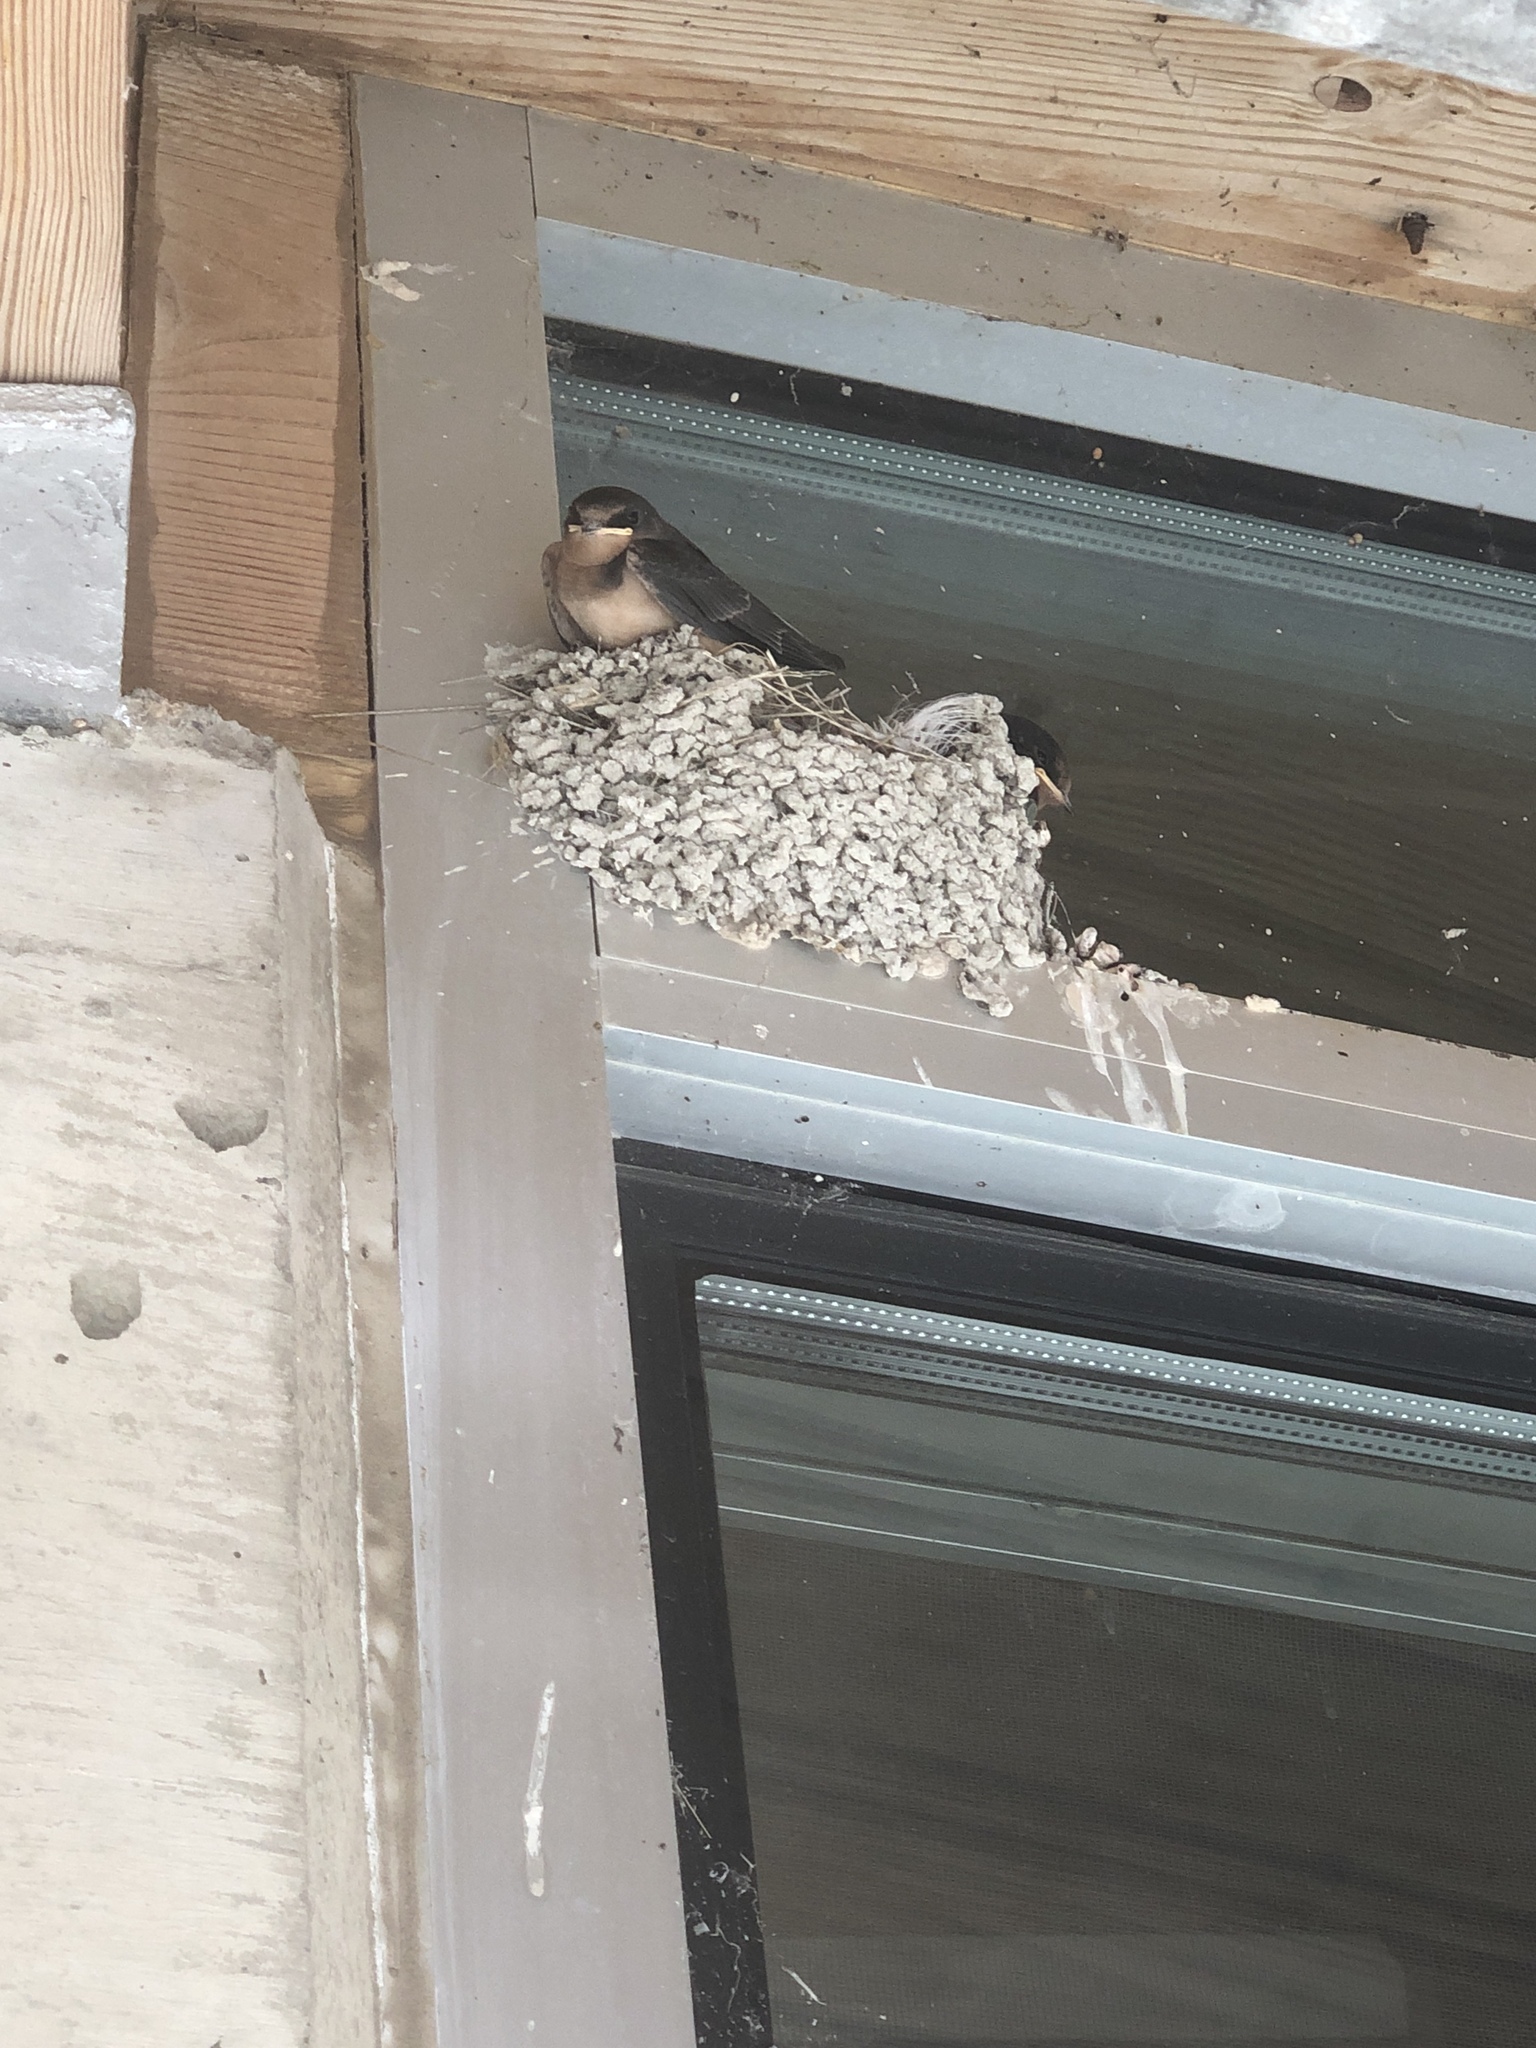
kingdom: Animalia
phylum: Chordata
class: Aves
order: Passeriformes
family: Hirundinidae
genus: Hirundo
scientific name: Hirundo rustica
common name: Barn swallow
